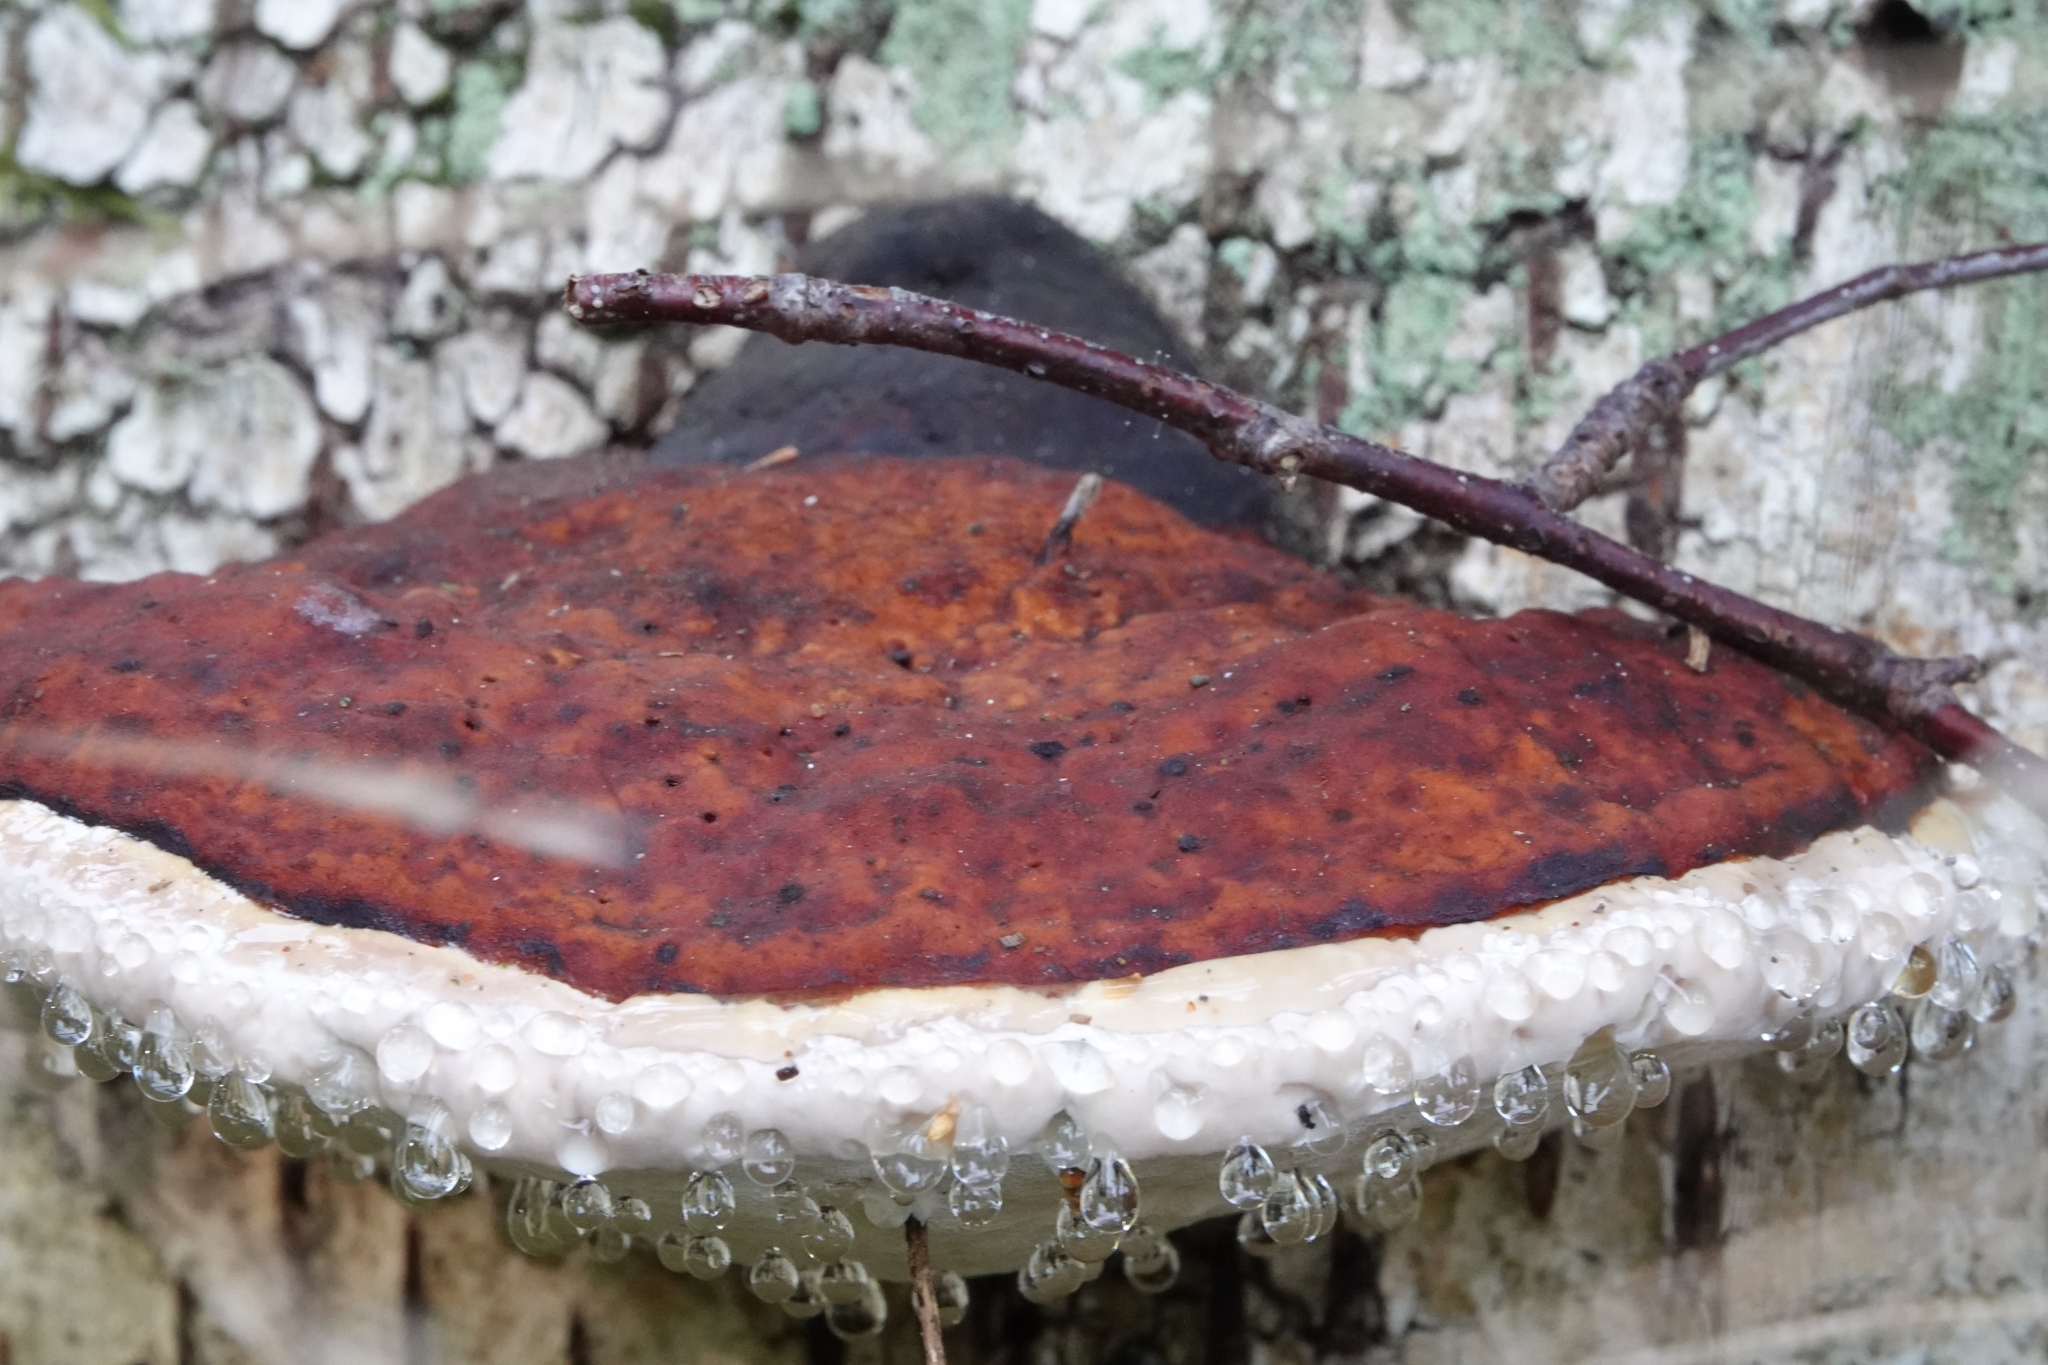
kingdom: Fungi
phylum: Basidiomycota
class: Agaricomycetes
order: Polyporales
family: Fomitopsidaceae
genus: Fomitopsis
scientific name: Fomitopsis pinicola
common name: Red-belted bracket
